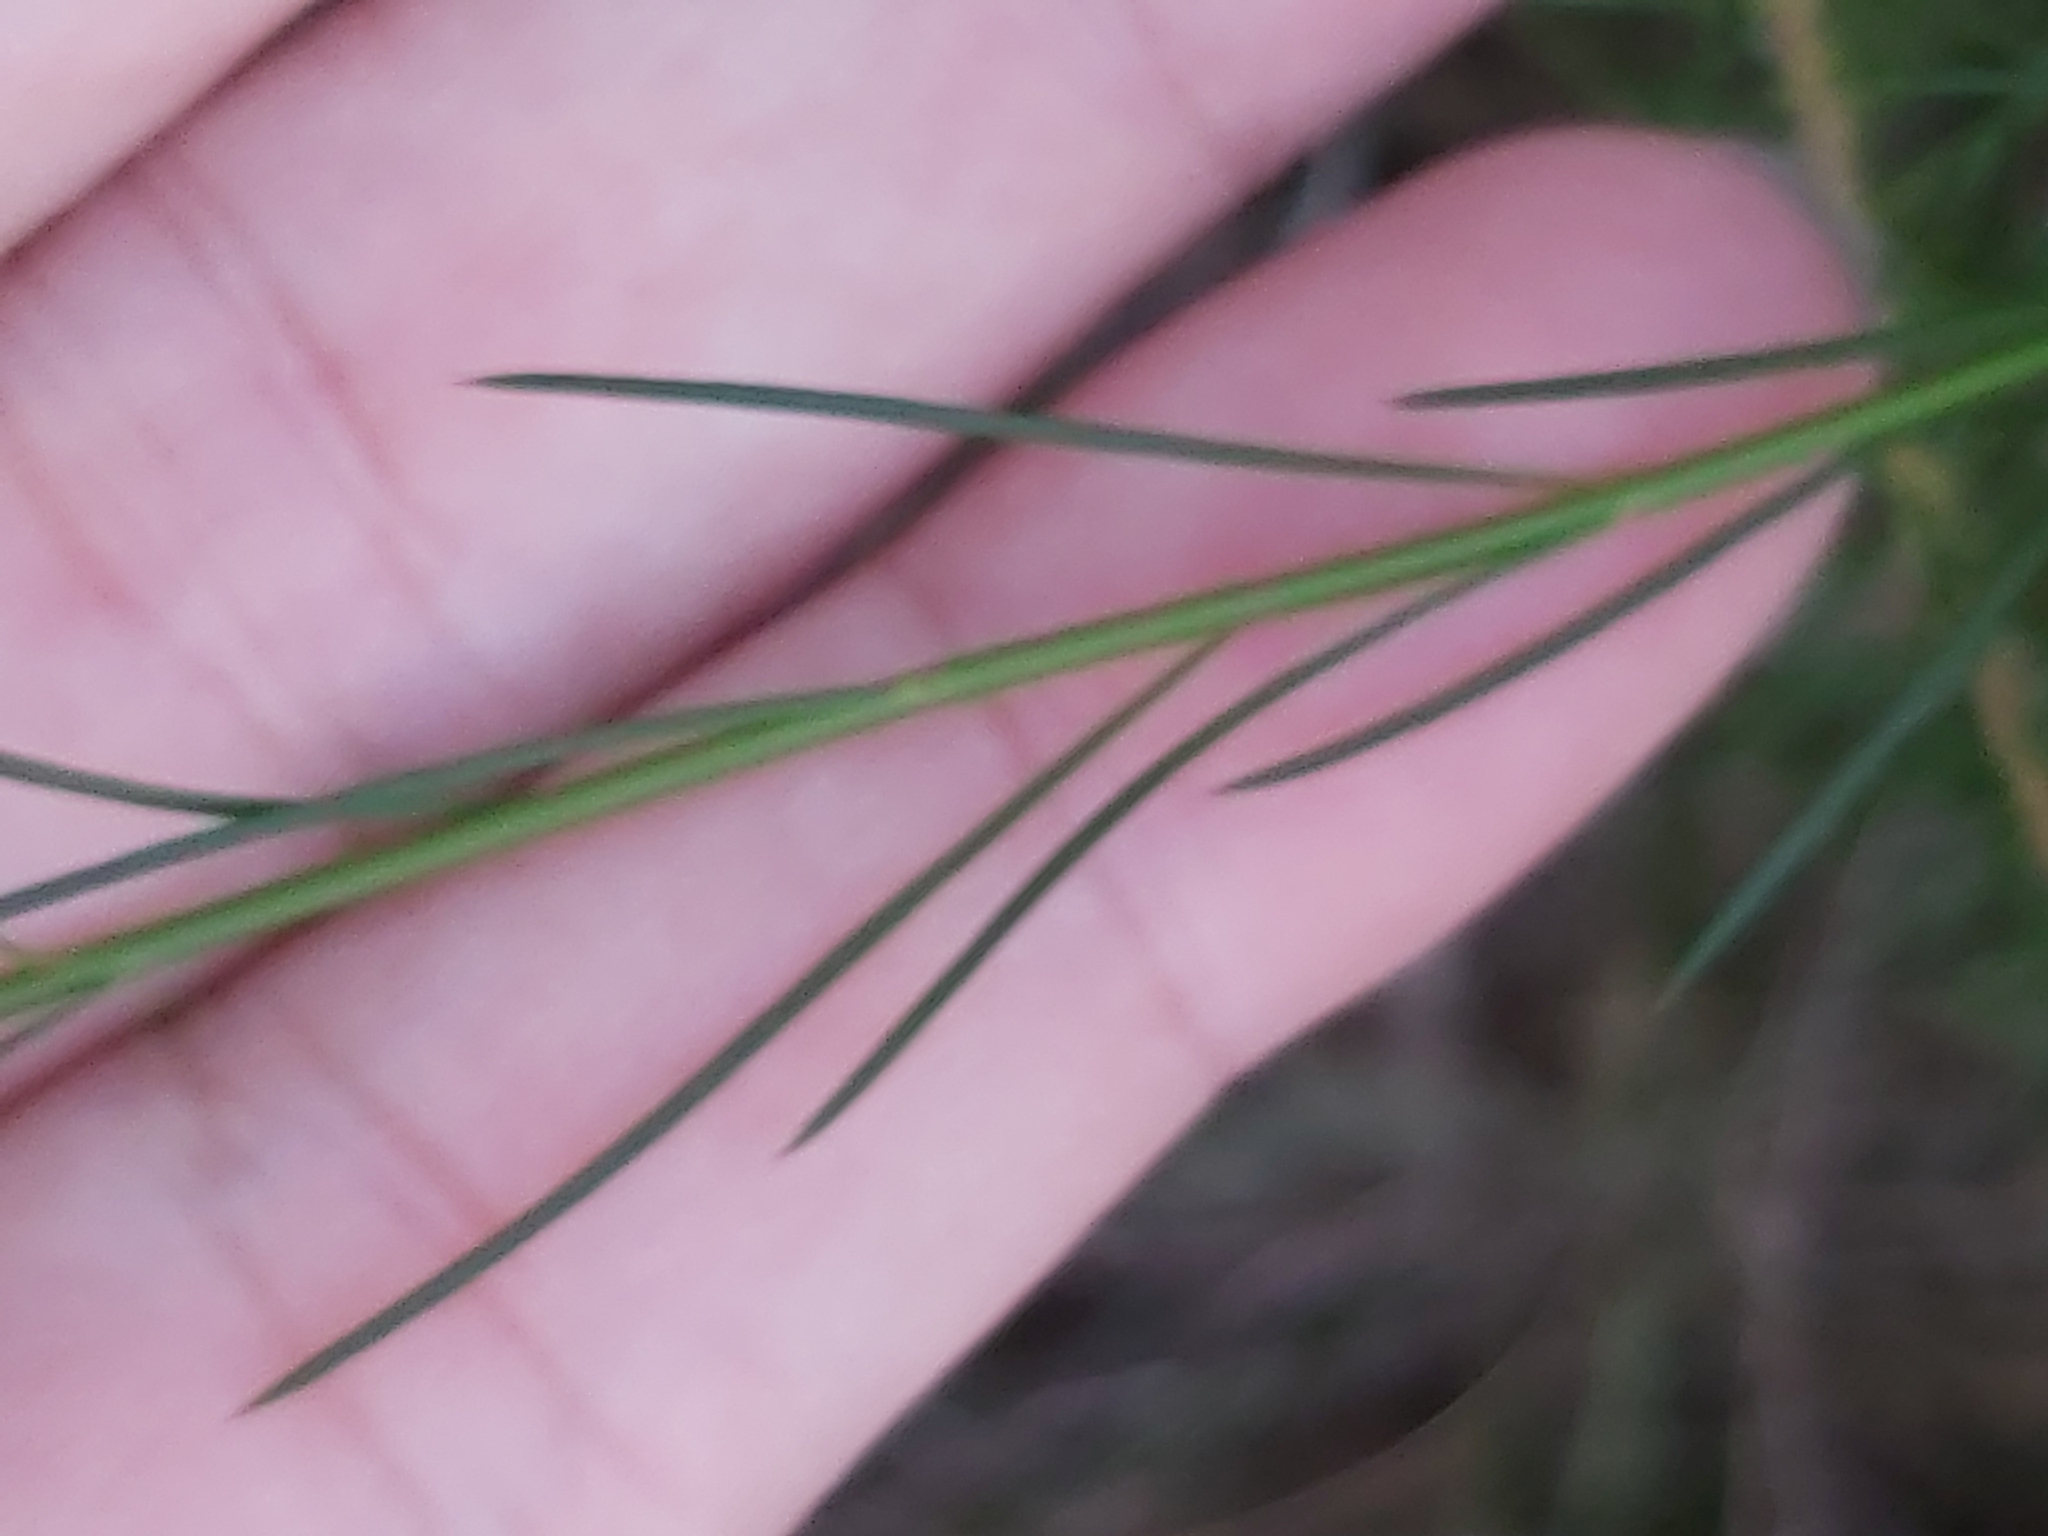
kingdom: Plantae
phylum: Tracheophyta
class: Magnoliopsida
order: Apiales
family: Apiaceae
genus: Platysace
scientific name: Platysace linearifolia
